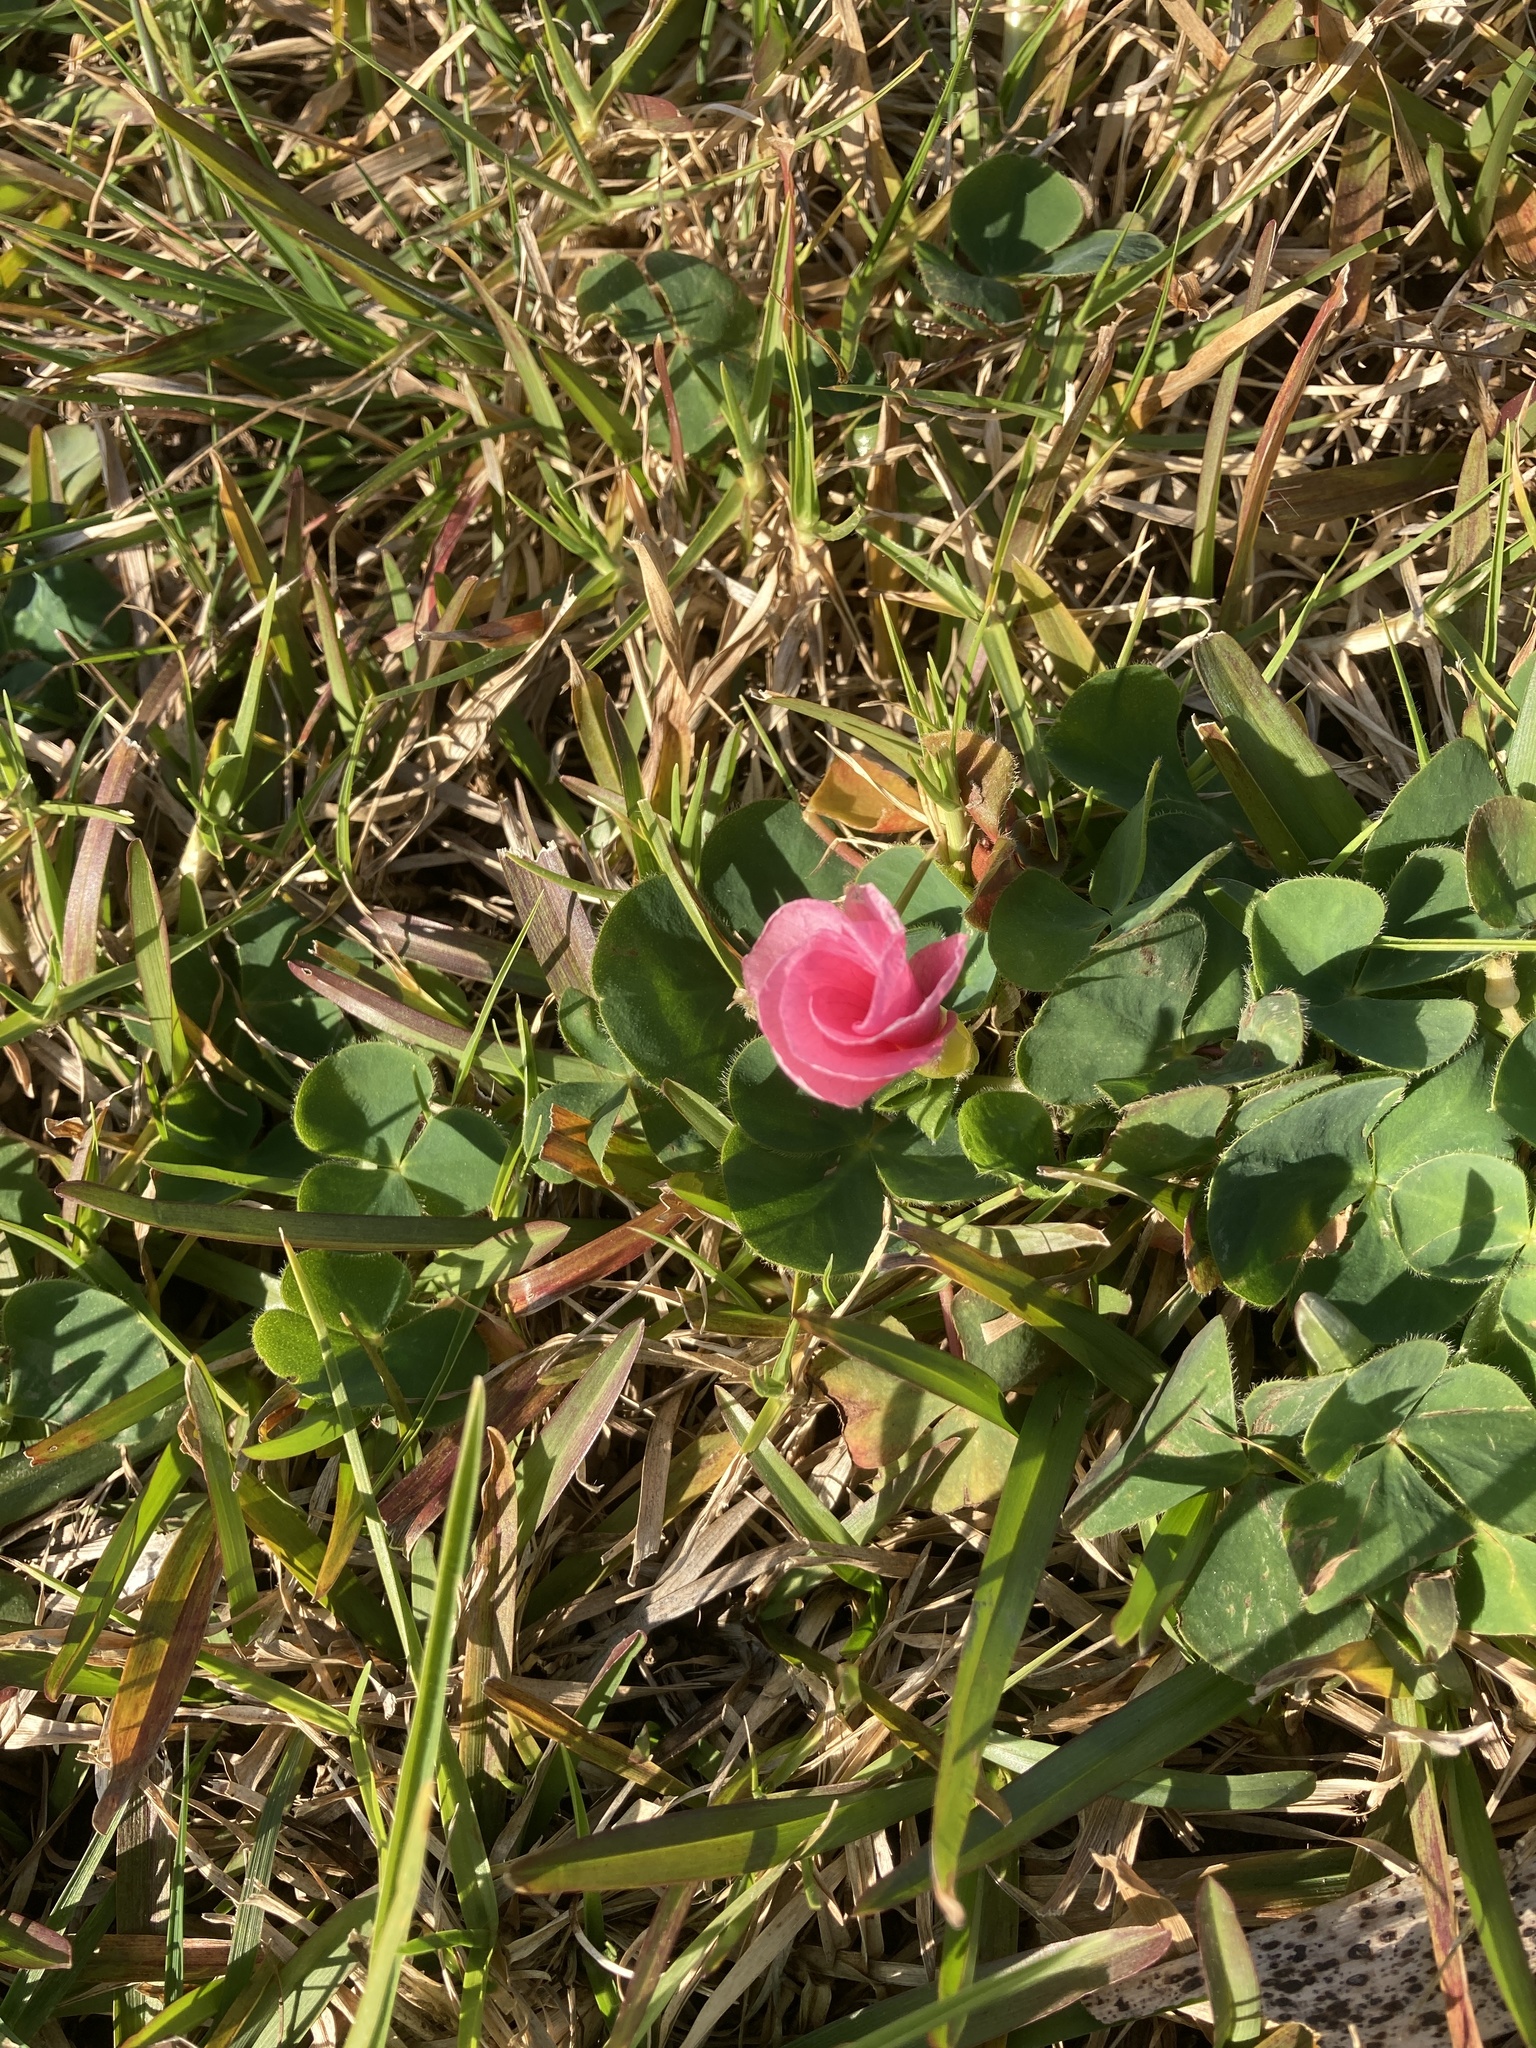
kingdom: Plantae
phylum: Tracheophyta
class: Magnoliopsida
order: Oxalidales
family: Oxalidaceae
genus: Oxalis
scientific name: Oxalis purpurea
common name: Purple woodsorrel
